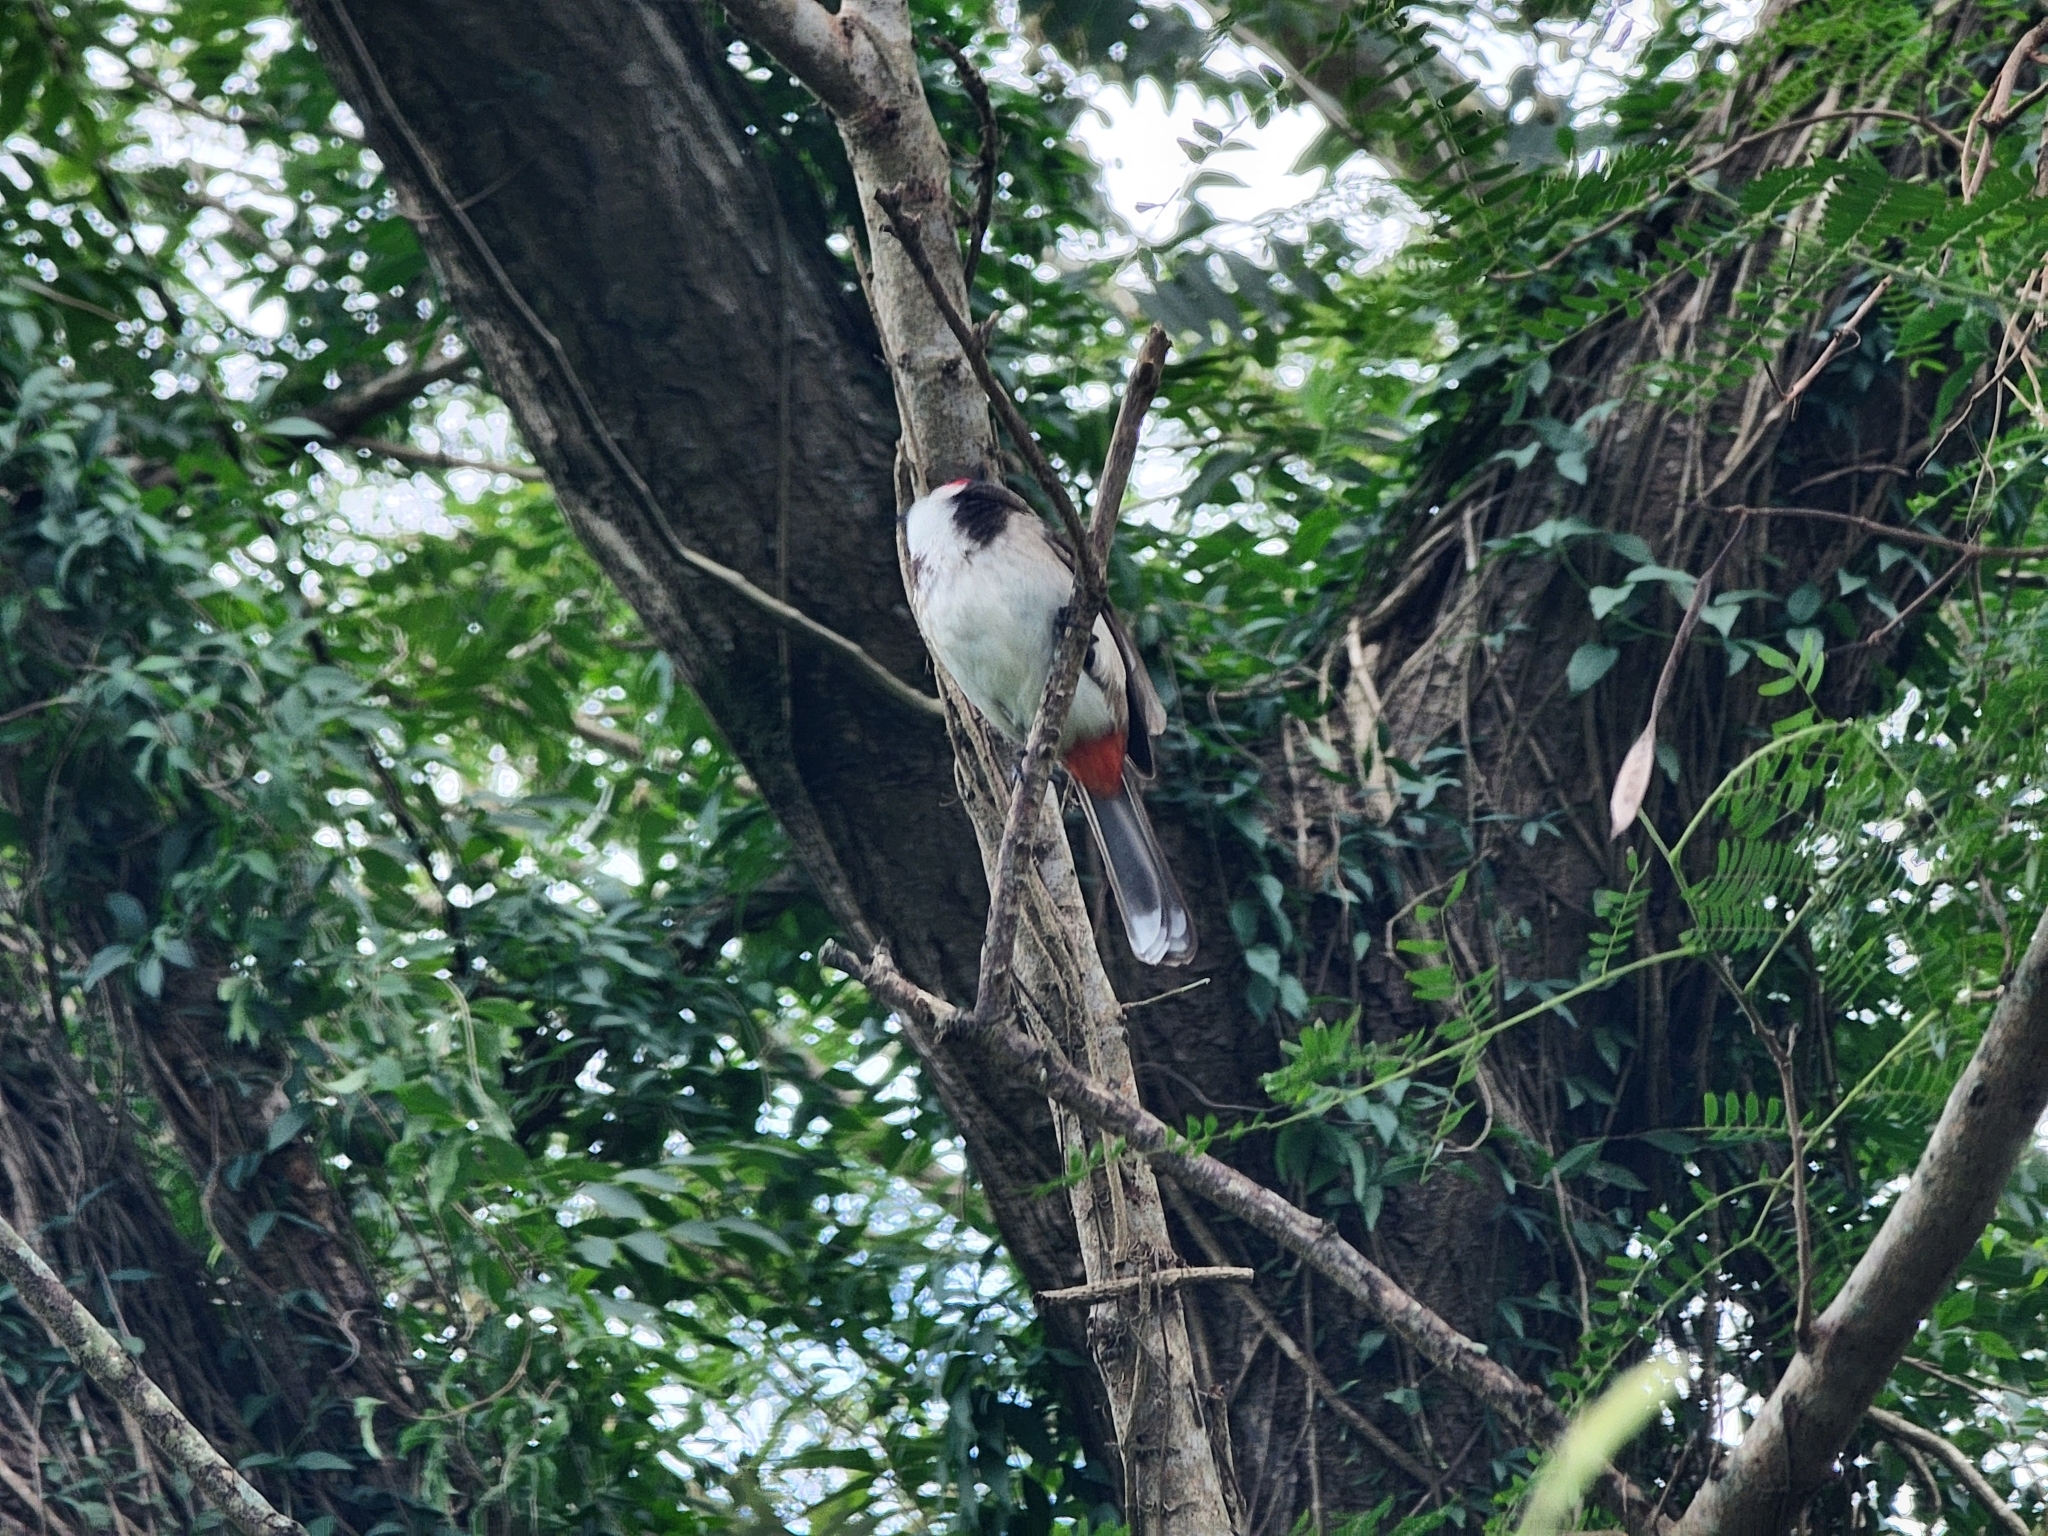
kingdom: Animalia
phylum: Chordata
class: Aves
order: Passeriformes
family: Pycnonotidae
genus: Pycnonotus
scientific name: Pycnonotus jocosus
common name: Red-whiskered bulbul
